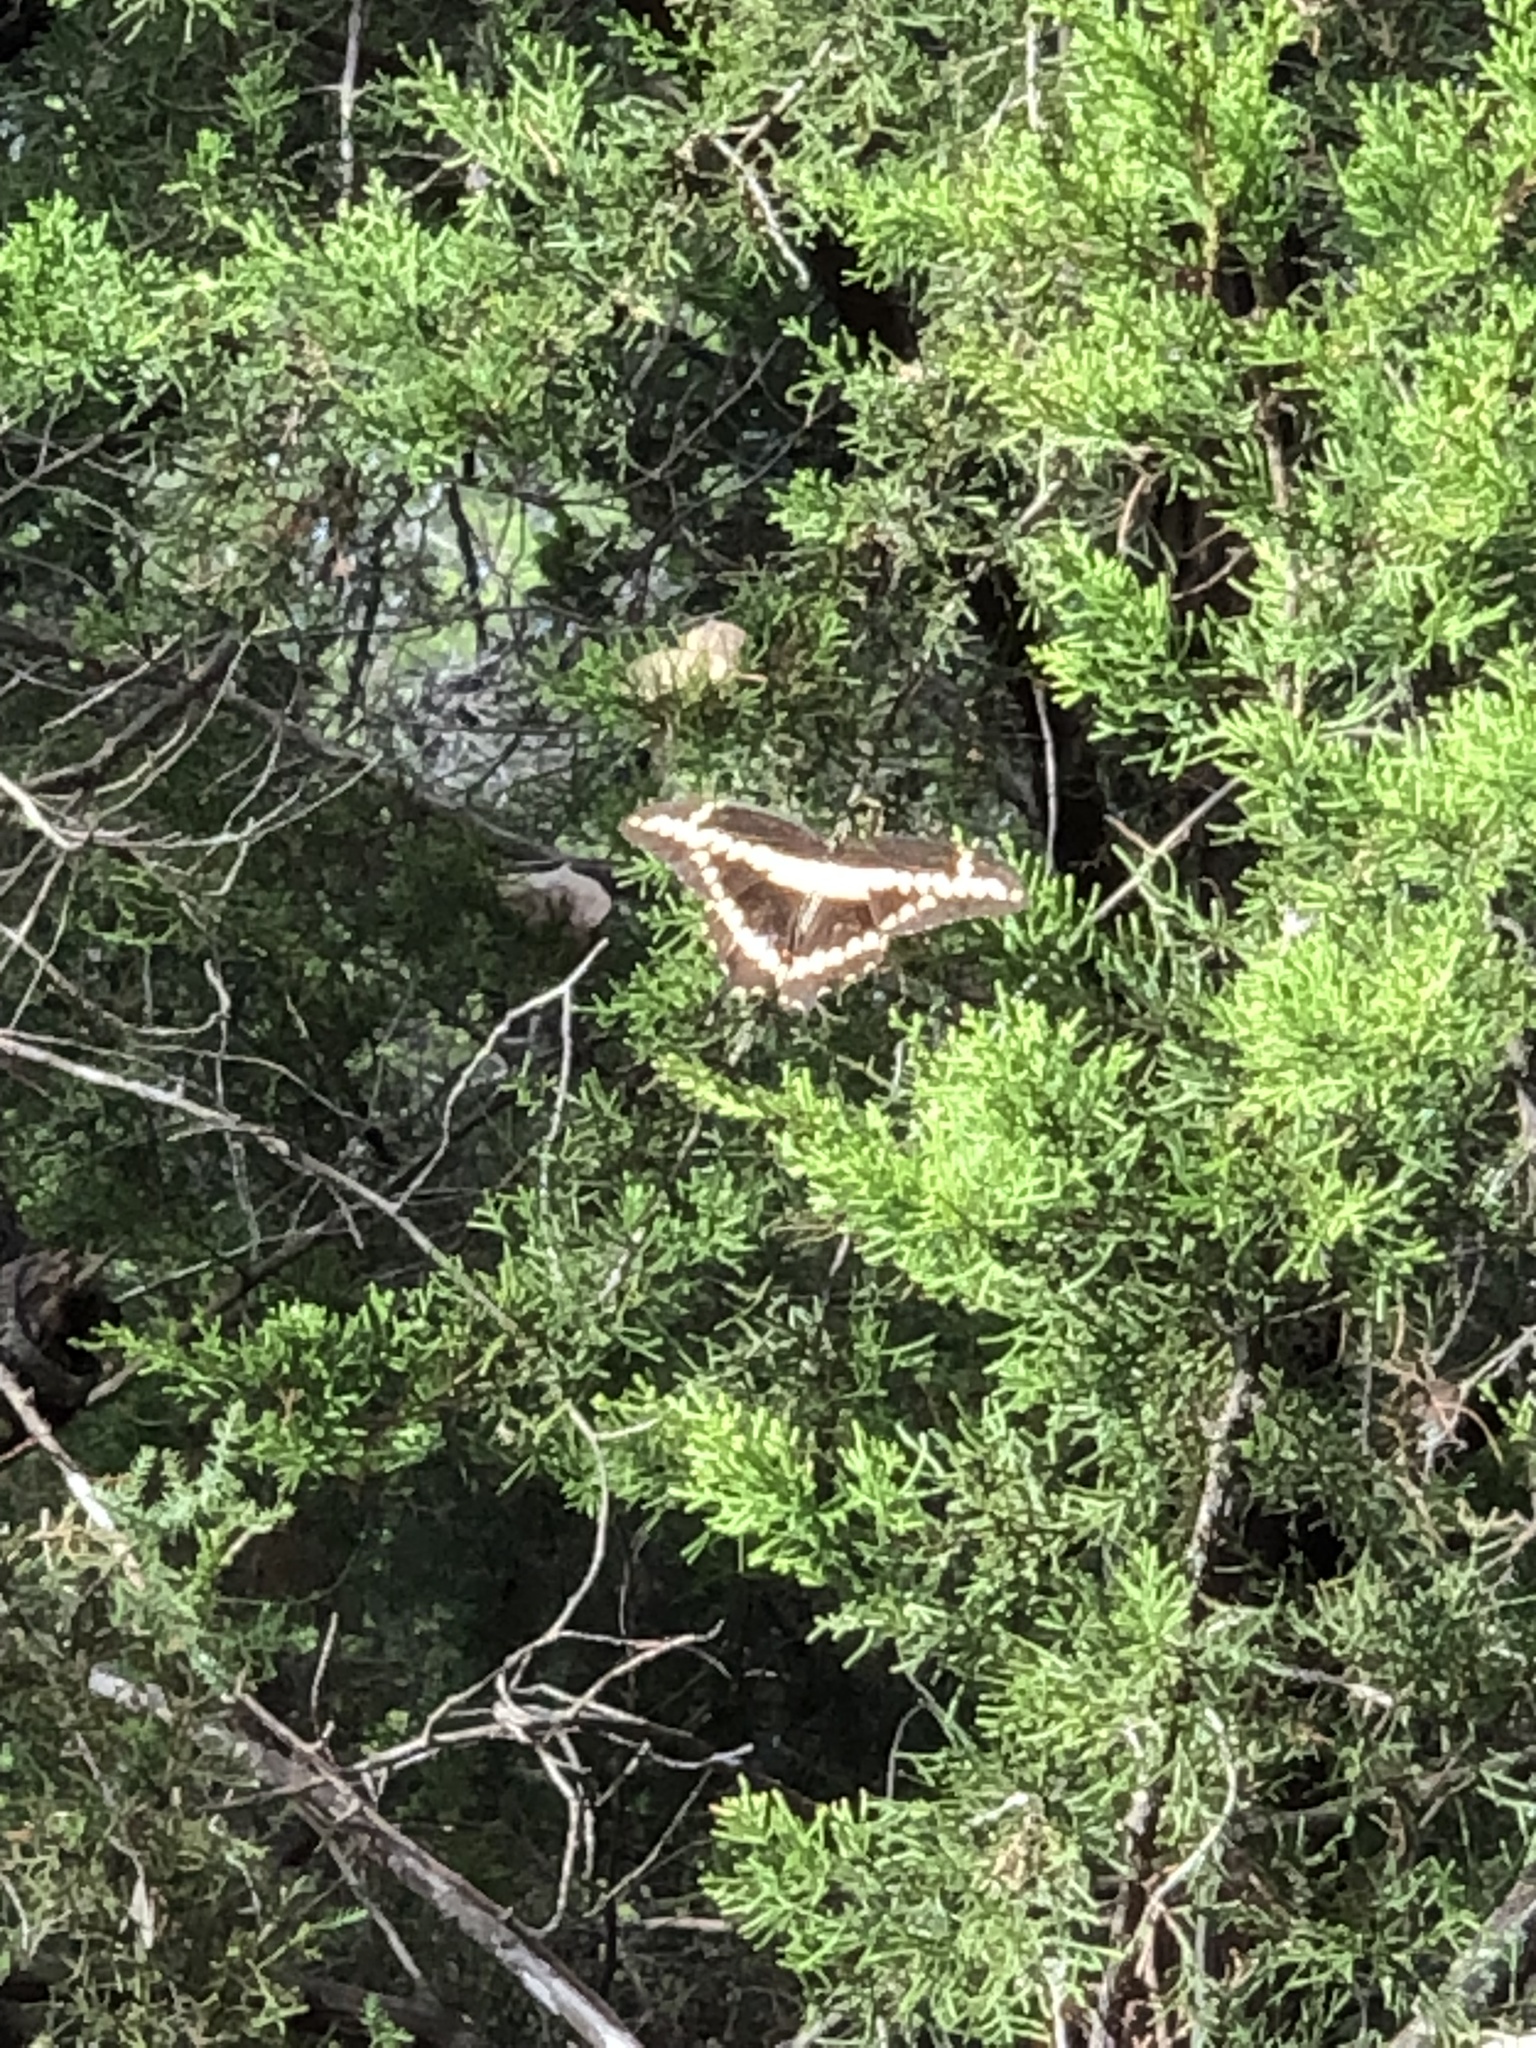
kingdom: Animalia
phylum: Arthropoda
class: Insecta
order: Lepidoptera
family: Papilionidae
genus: Papilio
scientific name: Papilio cresphontes
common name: Giant swallowtail
